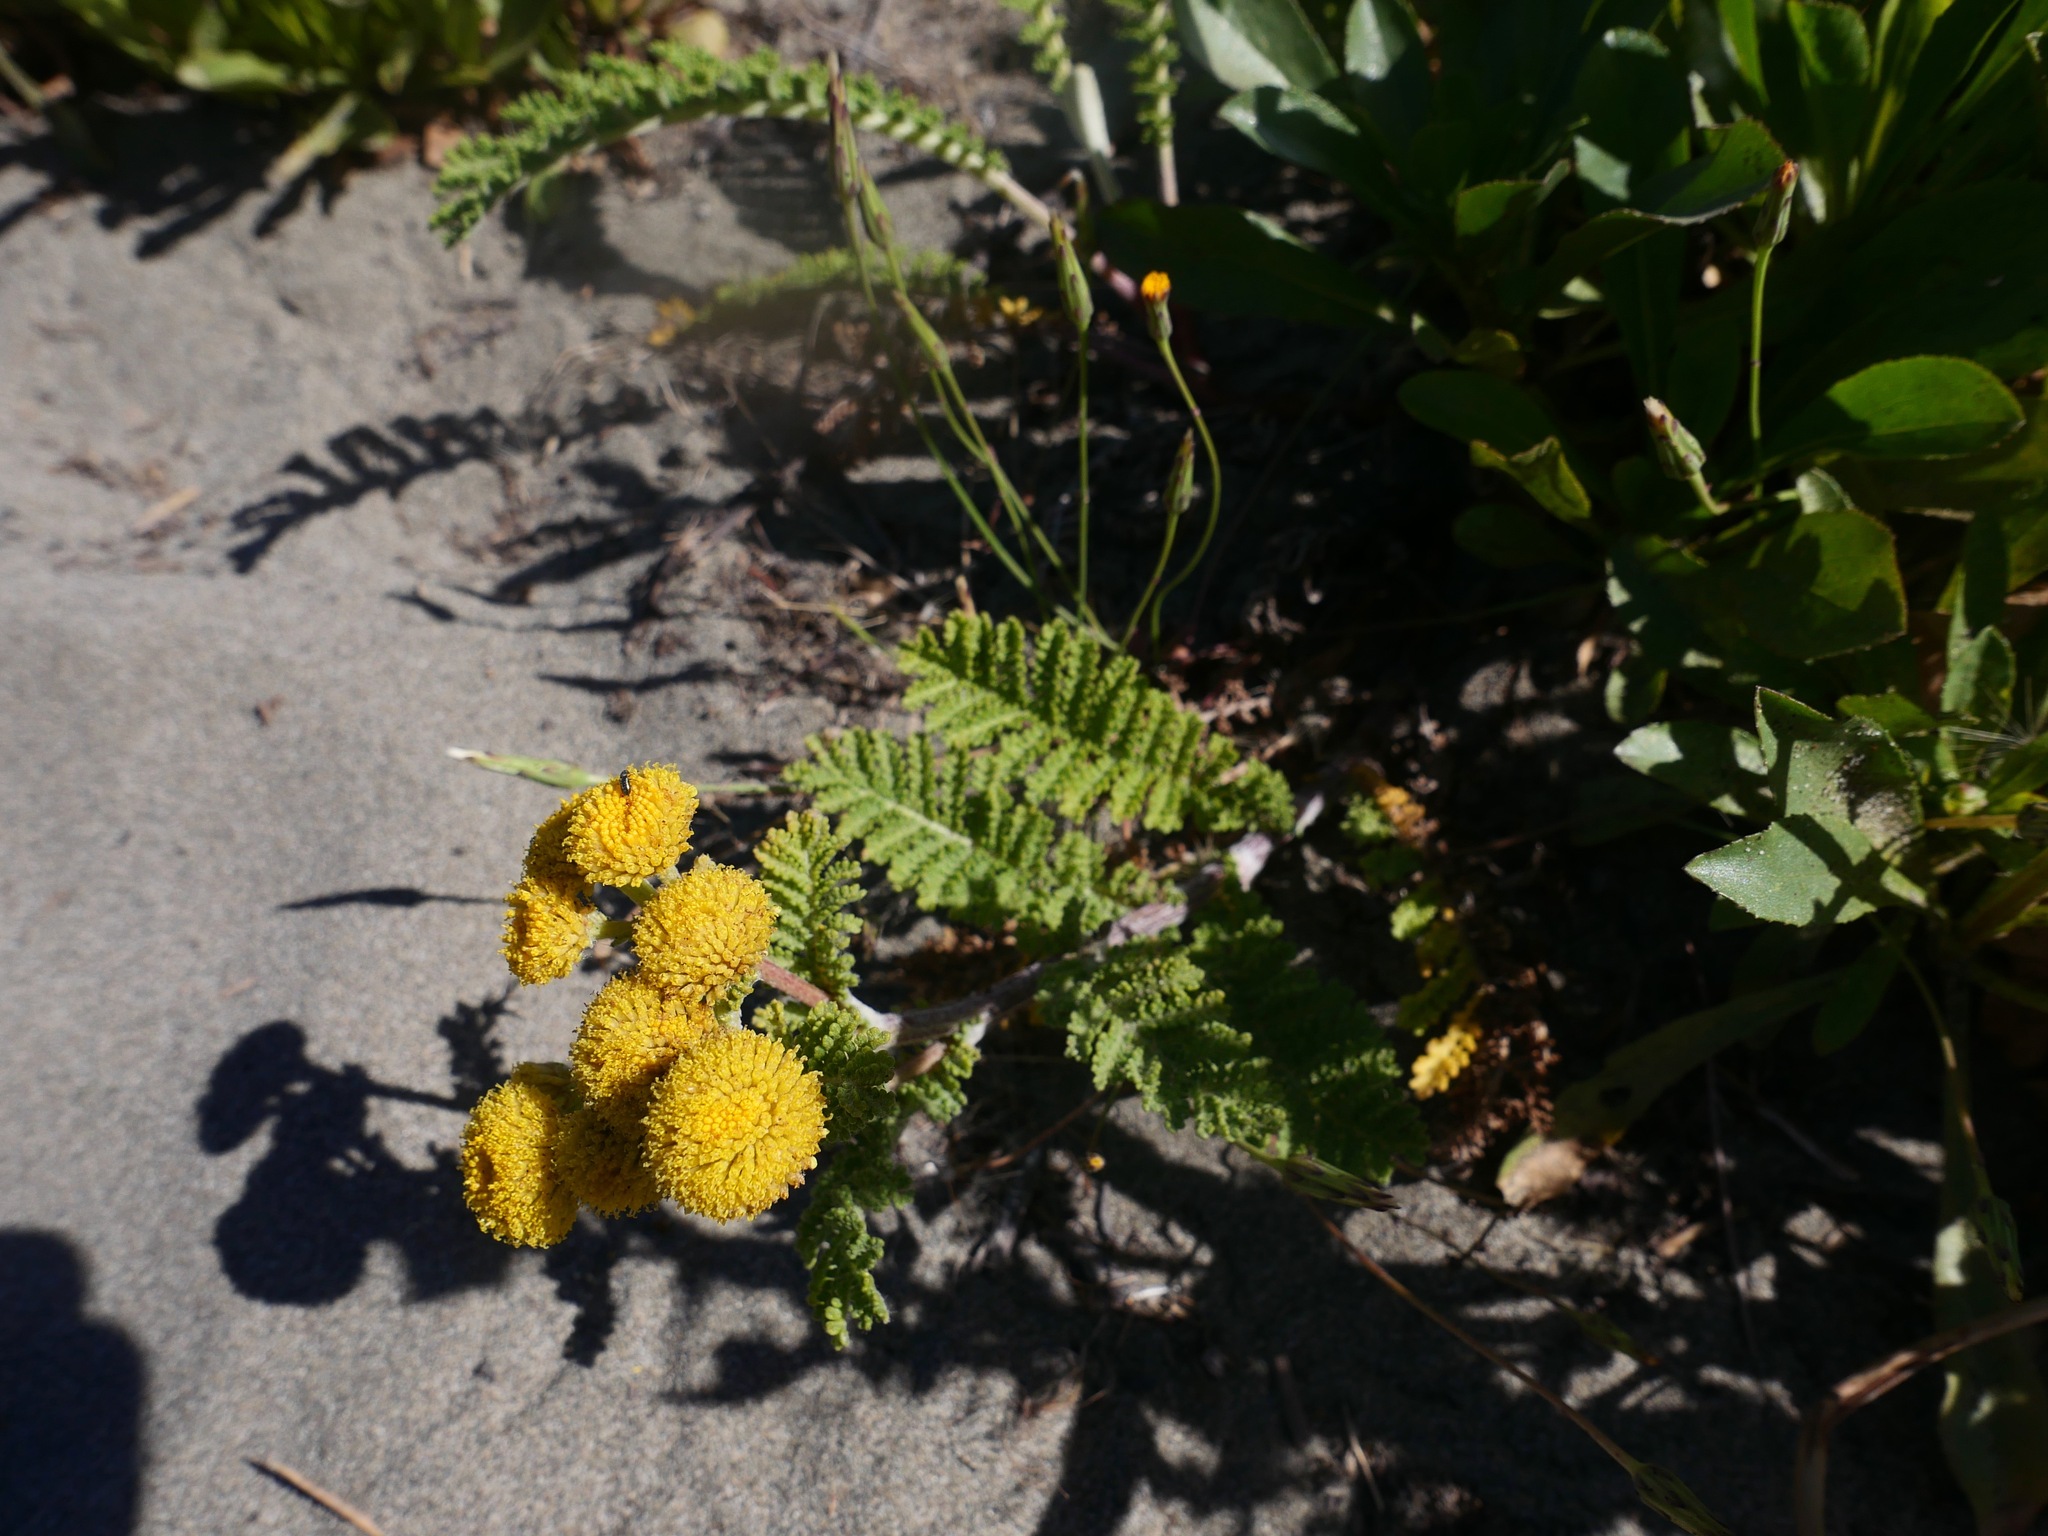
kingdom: Plantae
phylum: Tracheophyta
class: Magnoliopsida
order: Asterales
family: Asteraceae
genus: Tanacetum
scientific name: Tanacetum bipinnatum
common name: Dwarf tansy
